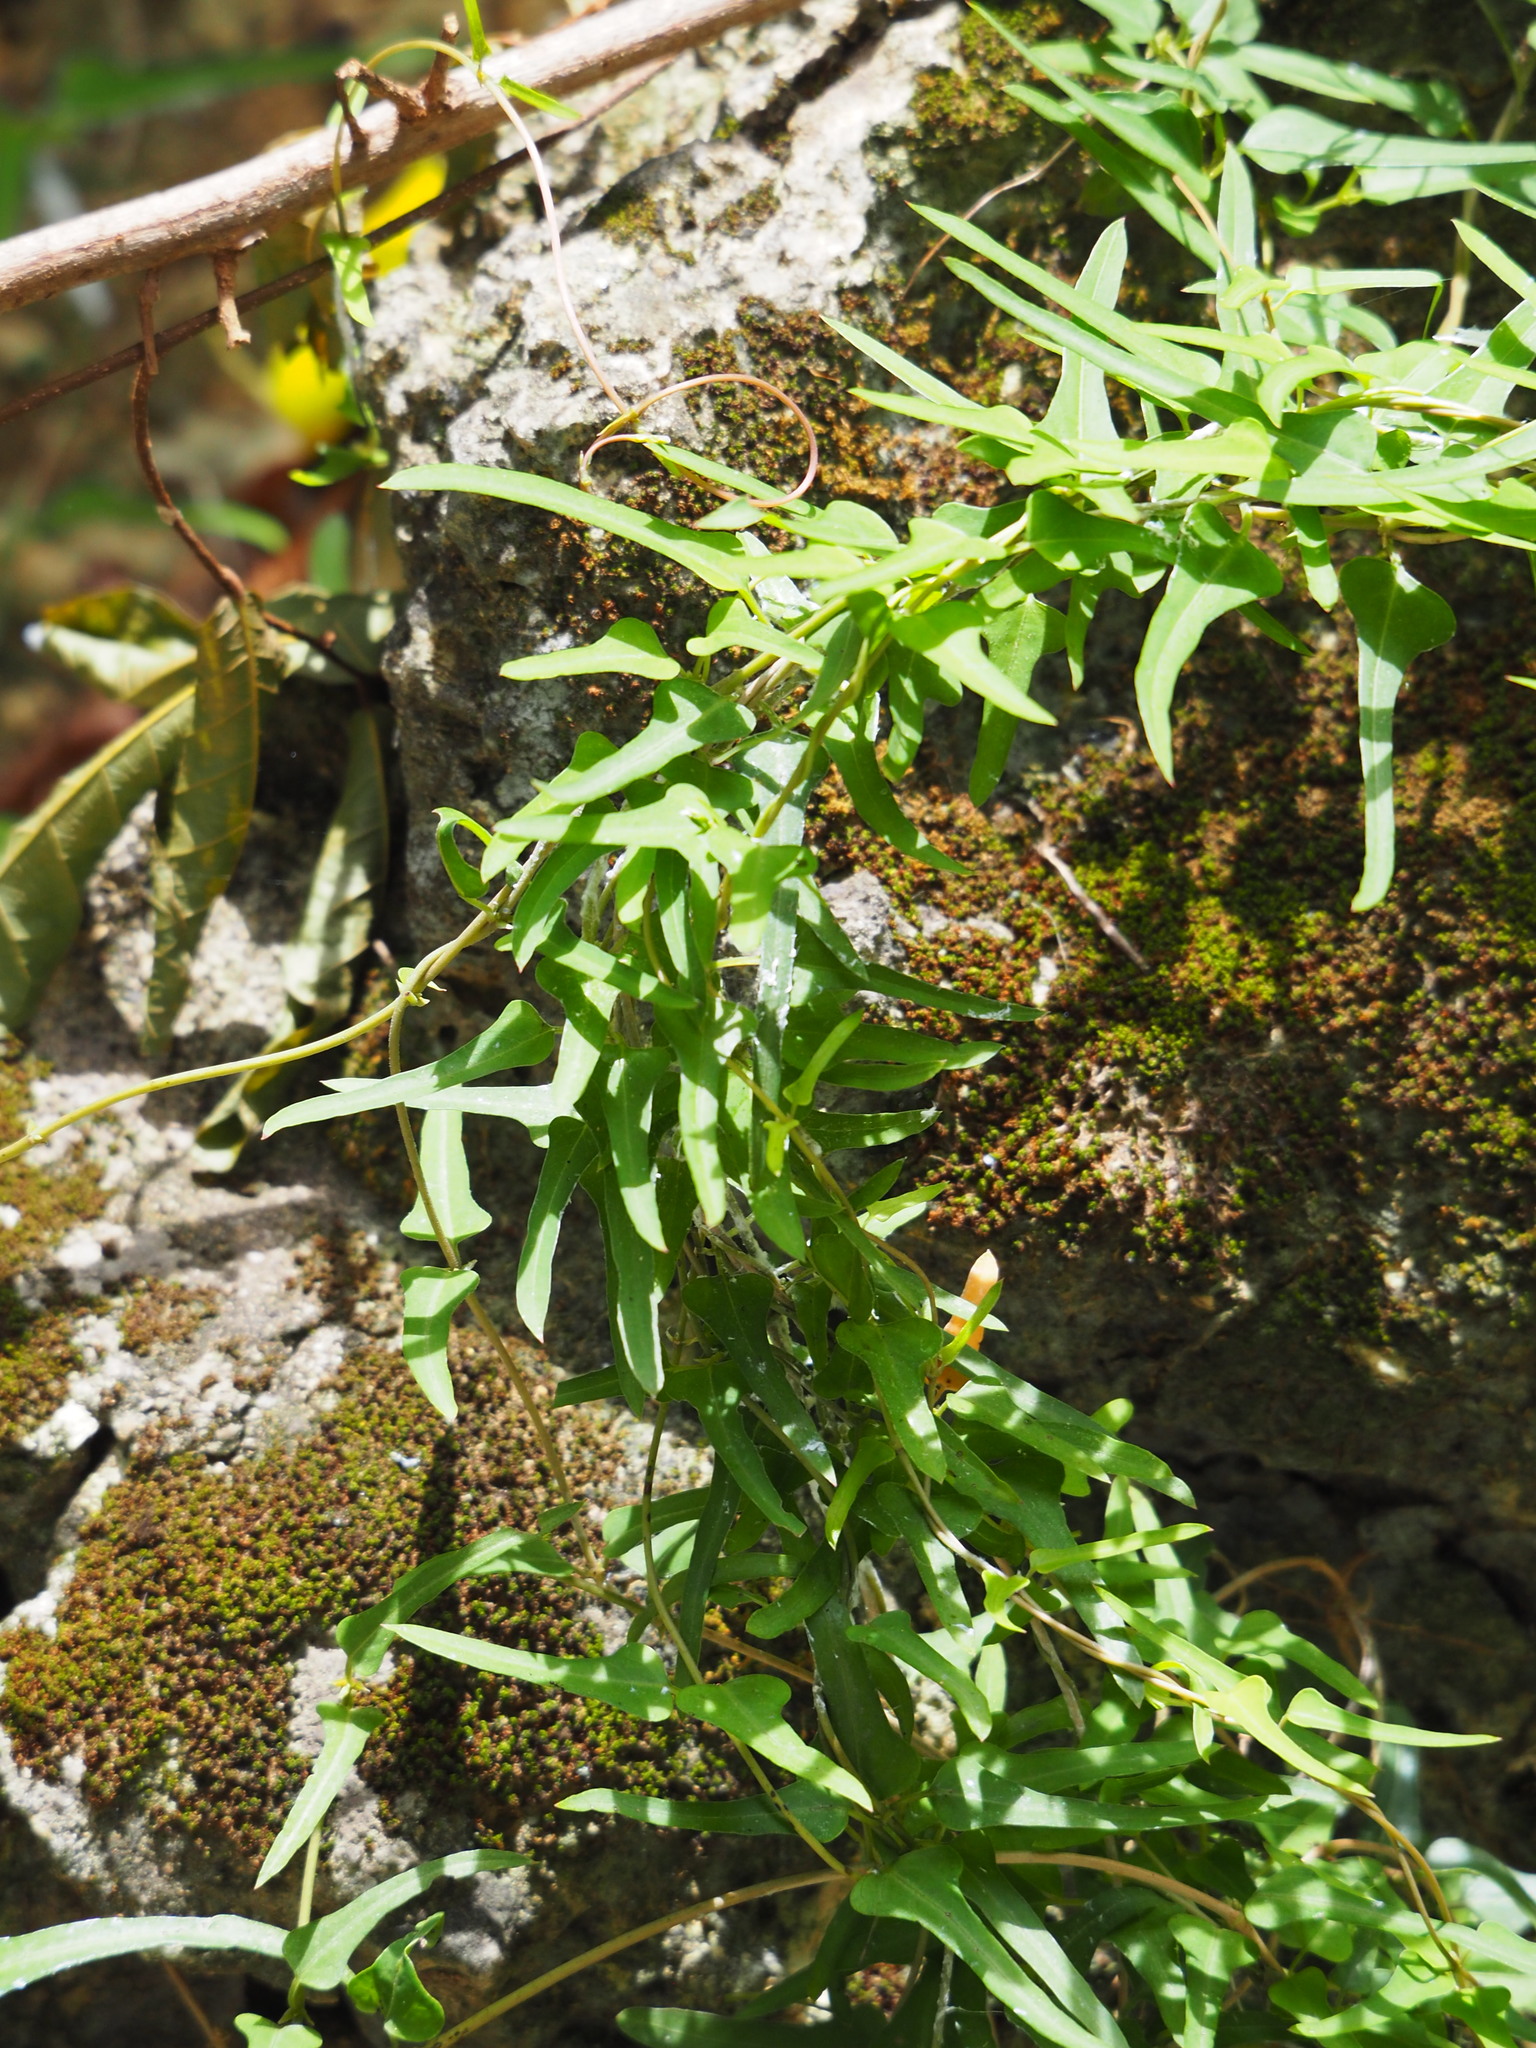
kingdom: Plantae
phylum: Tracheophyta
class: Magnoliopsida
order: Gentianales
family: Rubiaceae
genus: Paederia
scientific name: Paederia foetida
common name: Stinkvine
